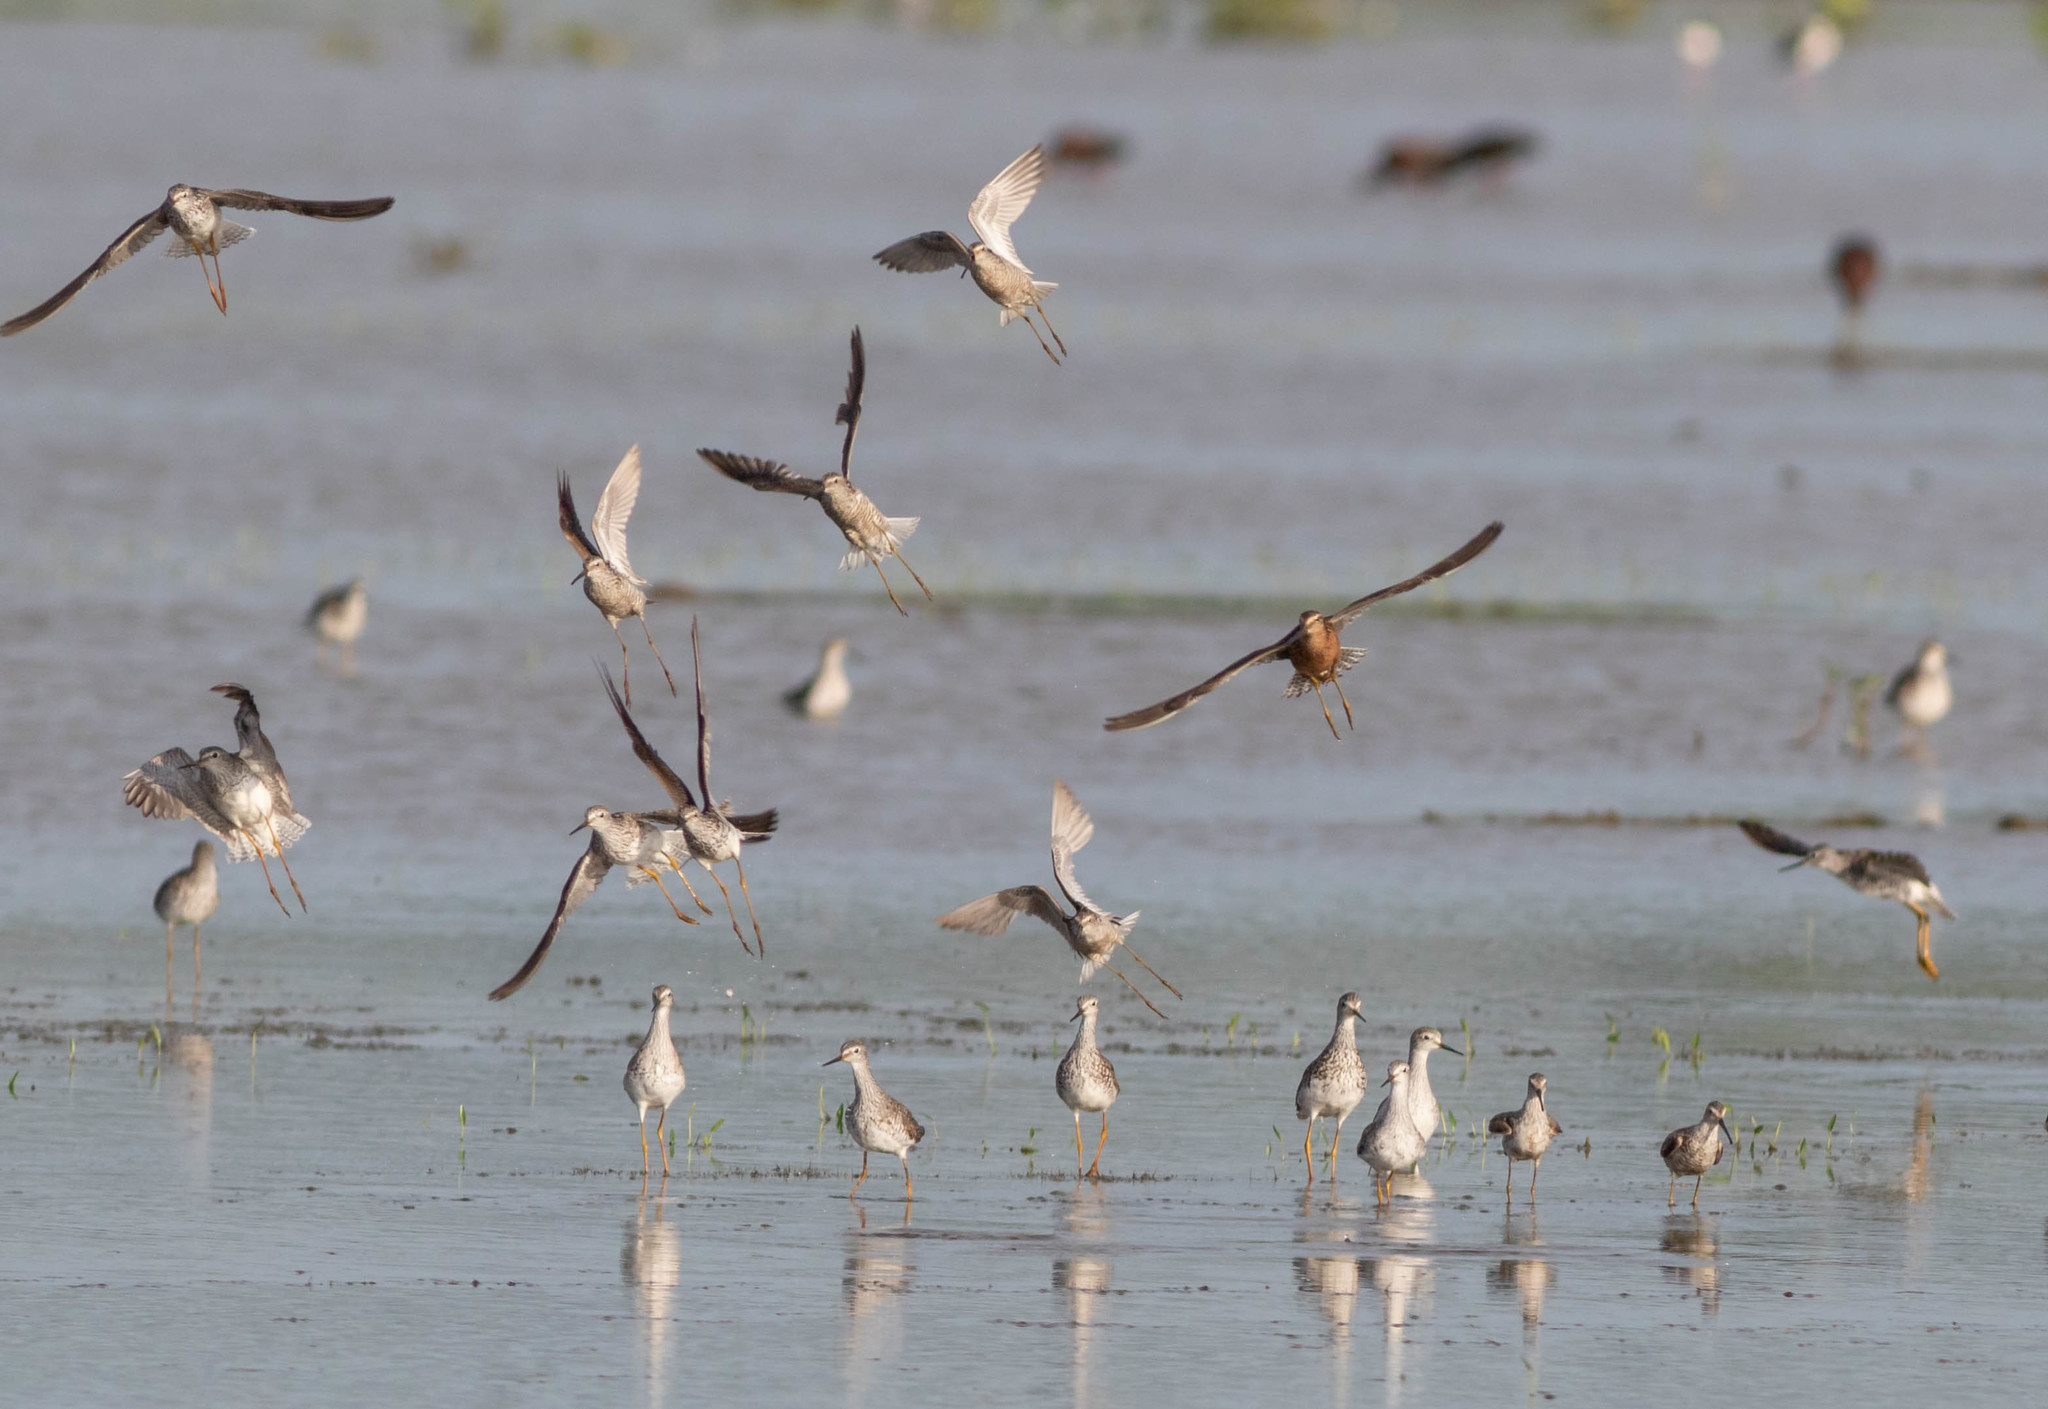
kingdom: Animalia
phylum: Chordata
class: Aves
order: Charadriiformes
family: Scolopacidae
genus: Tringa
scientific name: Tringa flavipes
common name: Lesser yellowlegs
